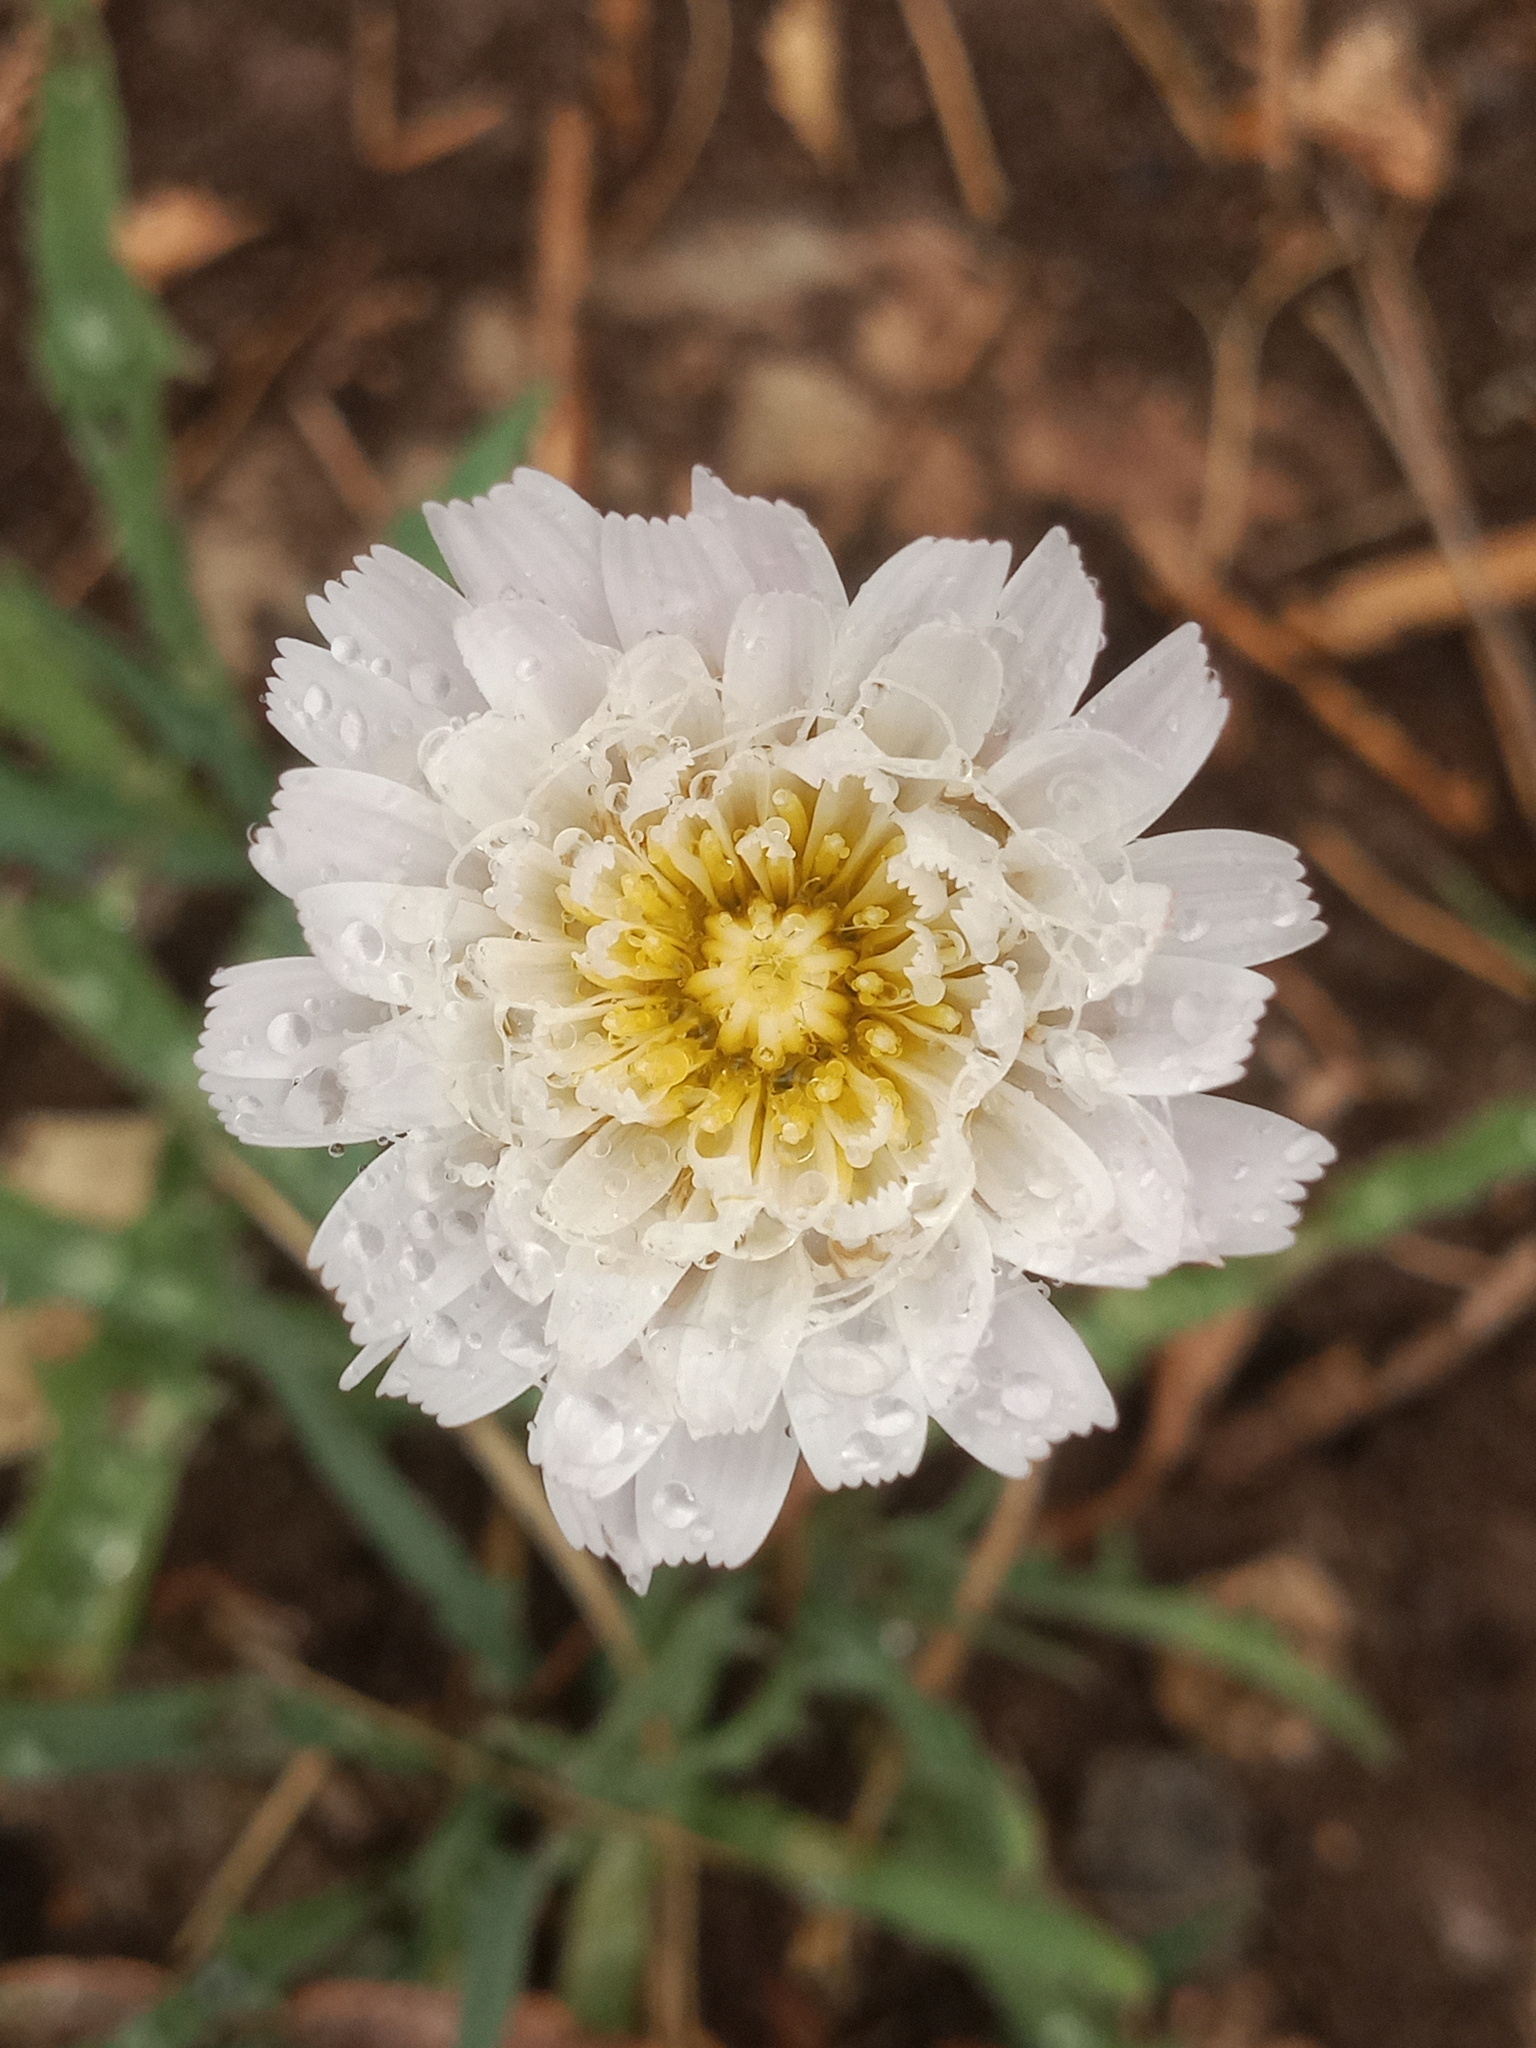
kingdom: Plantae
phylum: Tracheophyta
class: Magnoliopsida
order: Asterales
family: Asteraceae
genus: Pinaropappus
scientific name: Pinaropappus roseus
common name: Rock-lettuce
